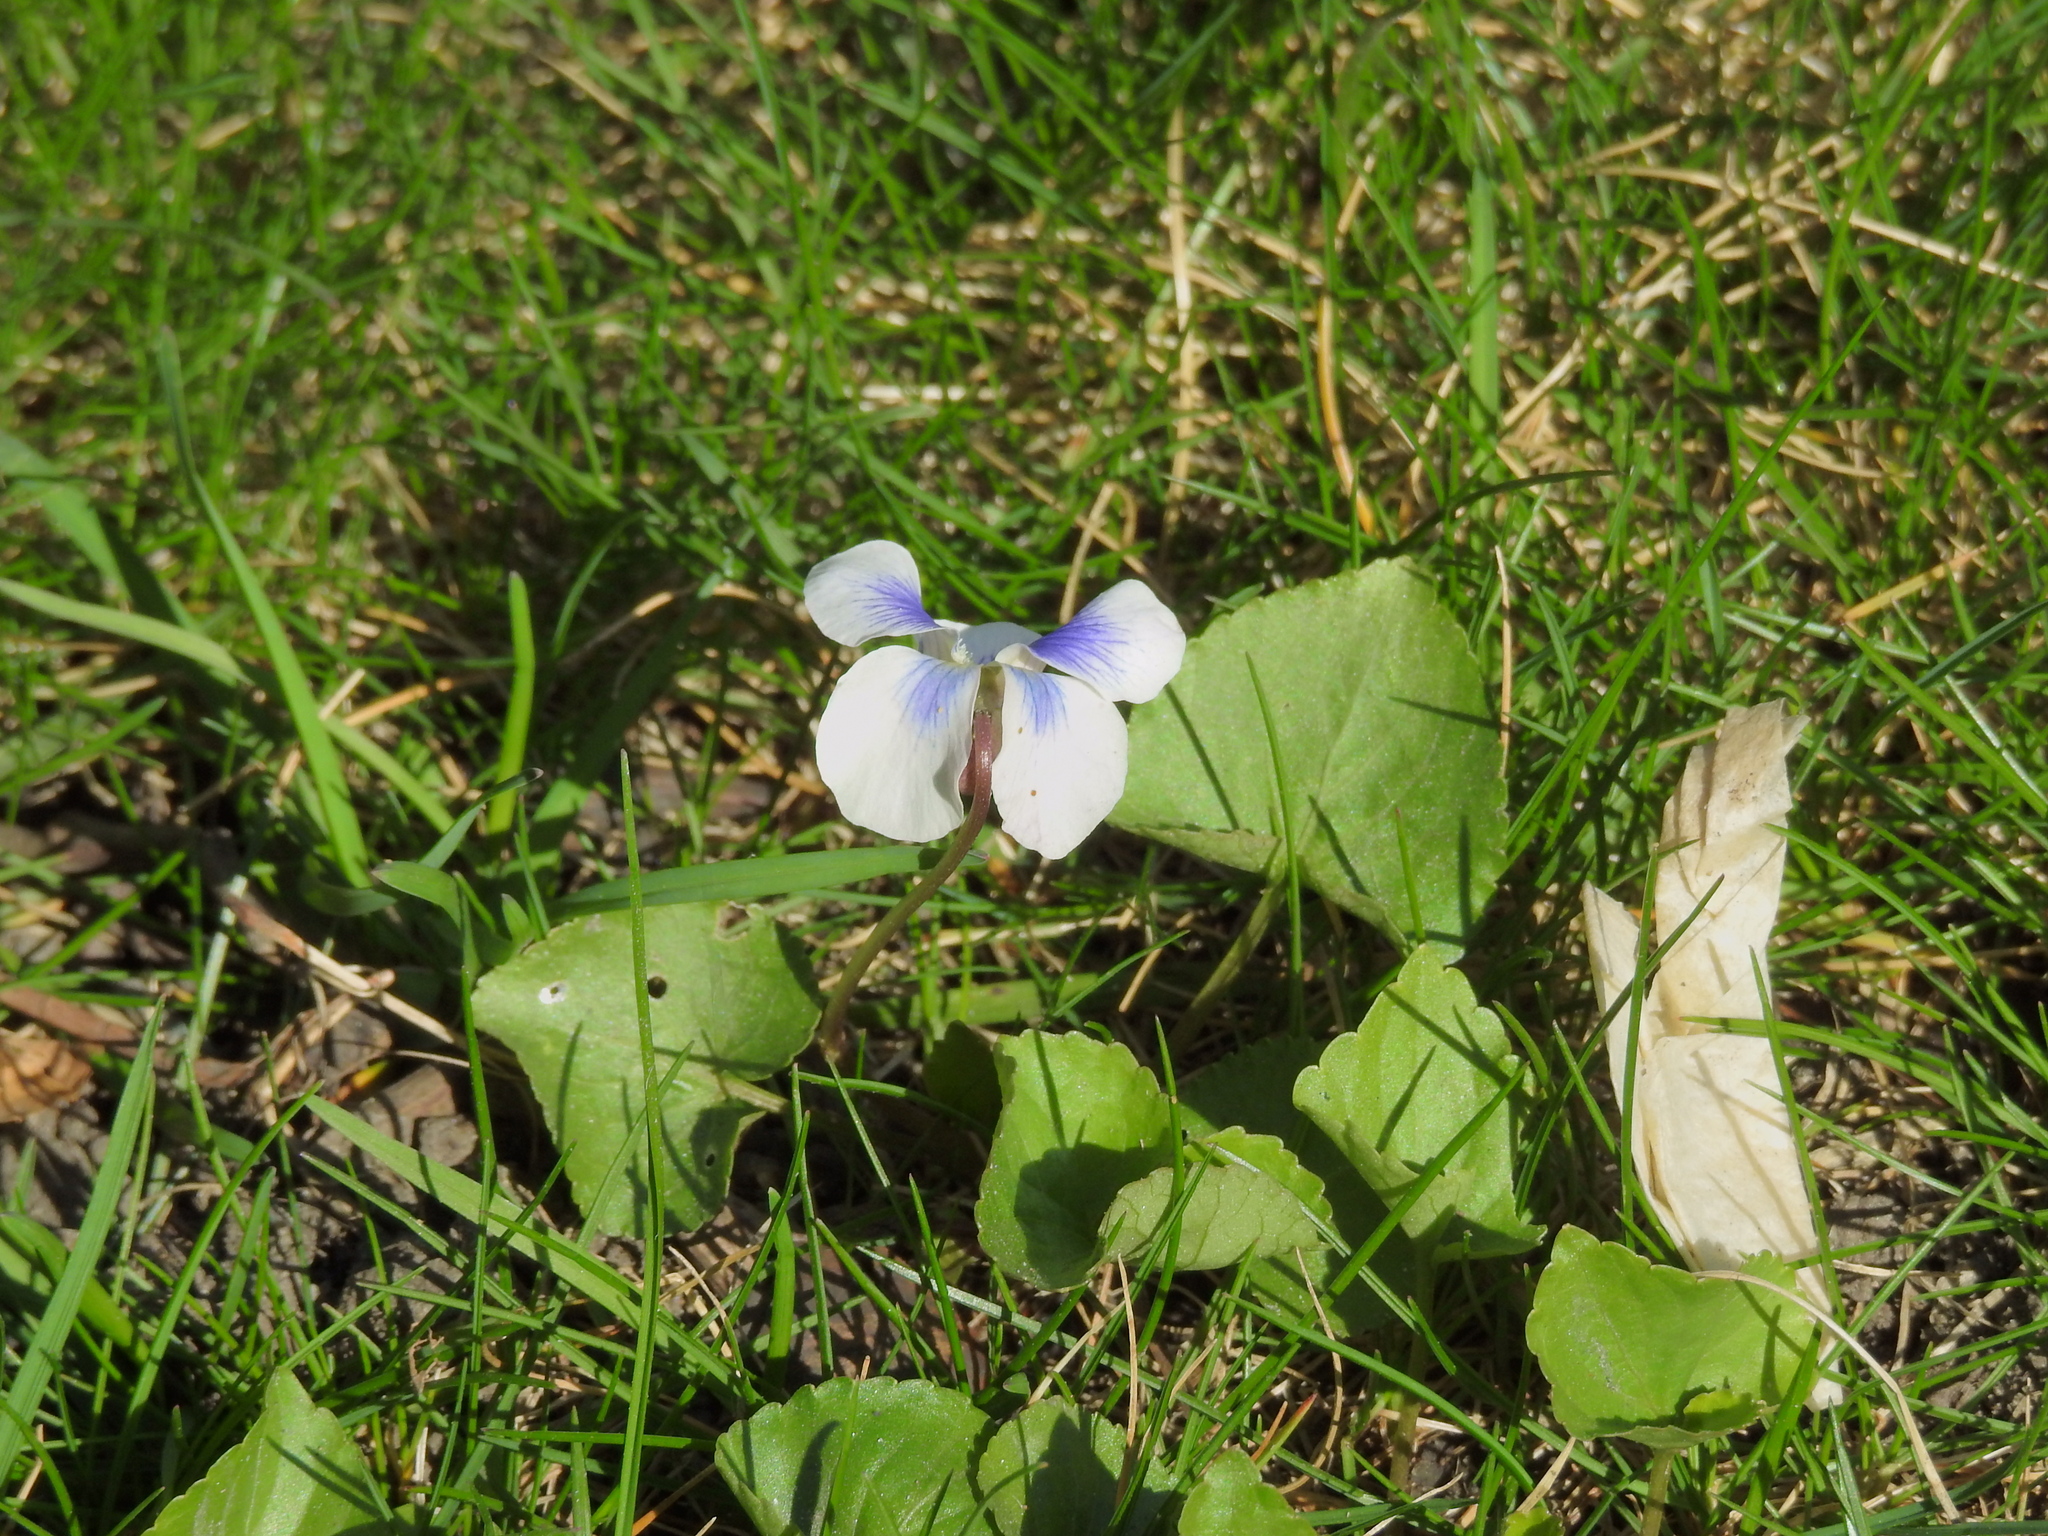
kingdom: Plantae
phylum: Tracheophyta
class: Magnoliopsida
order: Malpighiales
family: Violaceae
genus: Viola
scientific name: Viola sororia
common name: Dooryard violet
